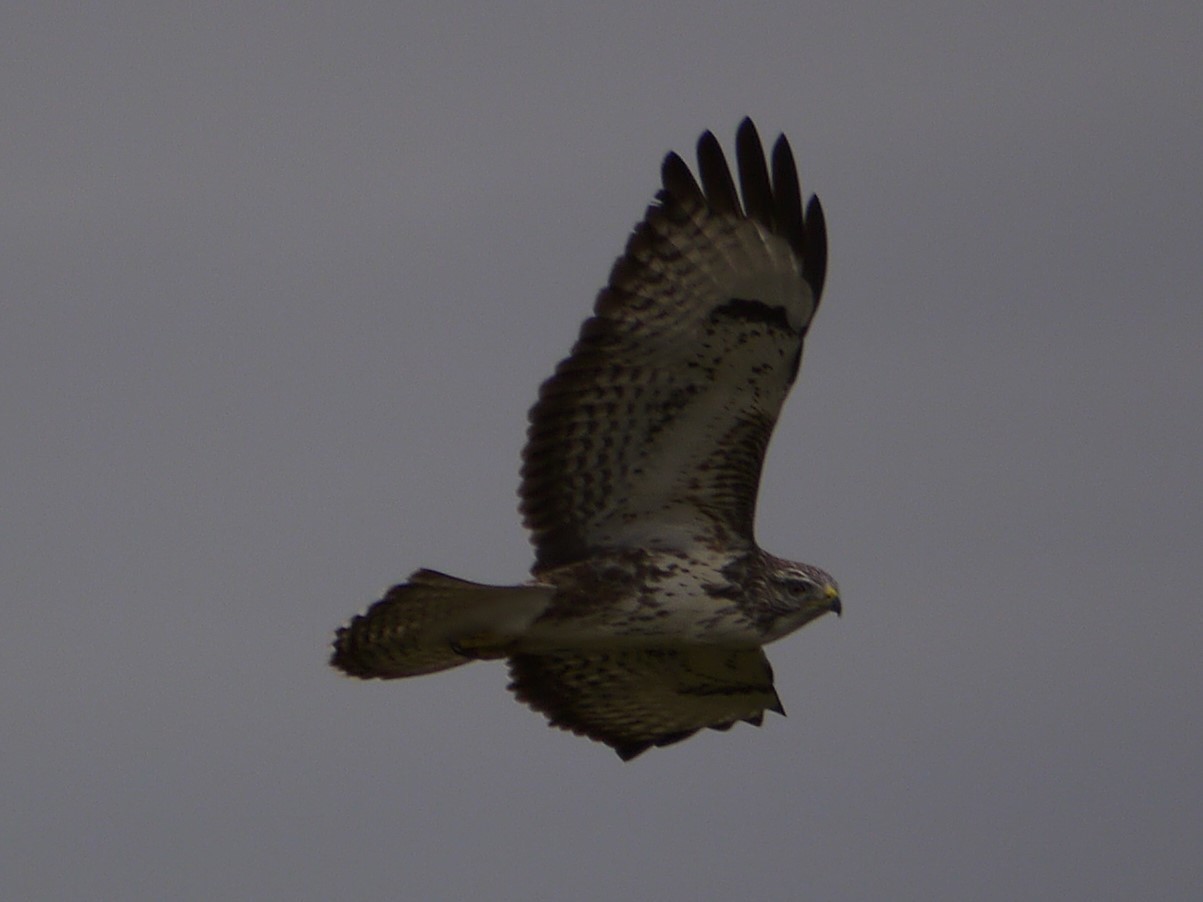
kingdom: Animalia
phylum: Chordata
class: Aves
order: Accipitriformes
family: Accipitridae
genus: Buteo
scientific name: Buteo buteo
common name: Common buzzard
